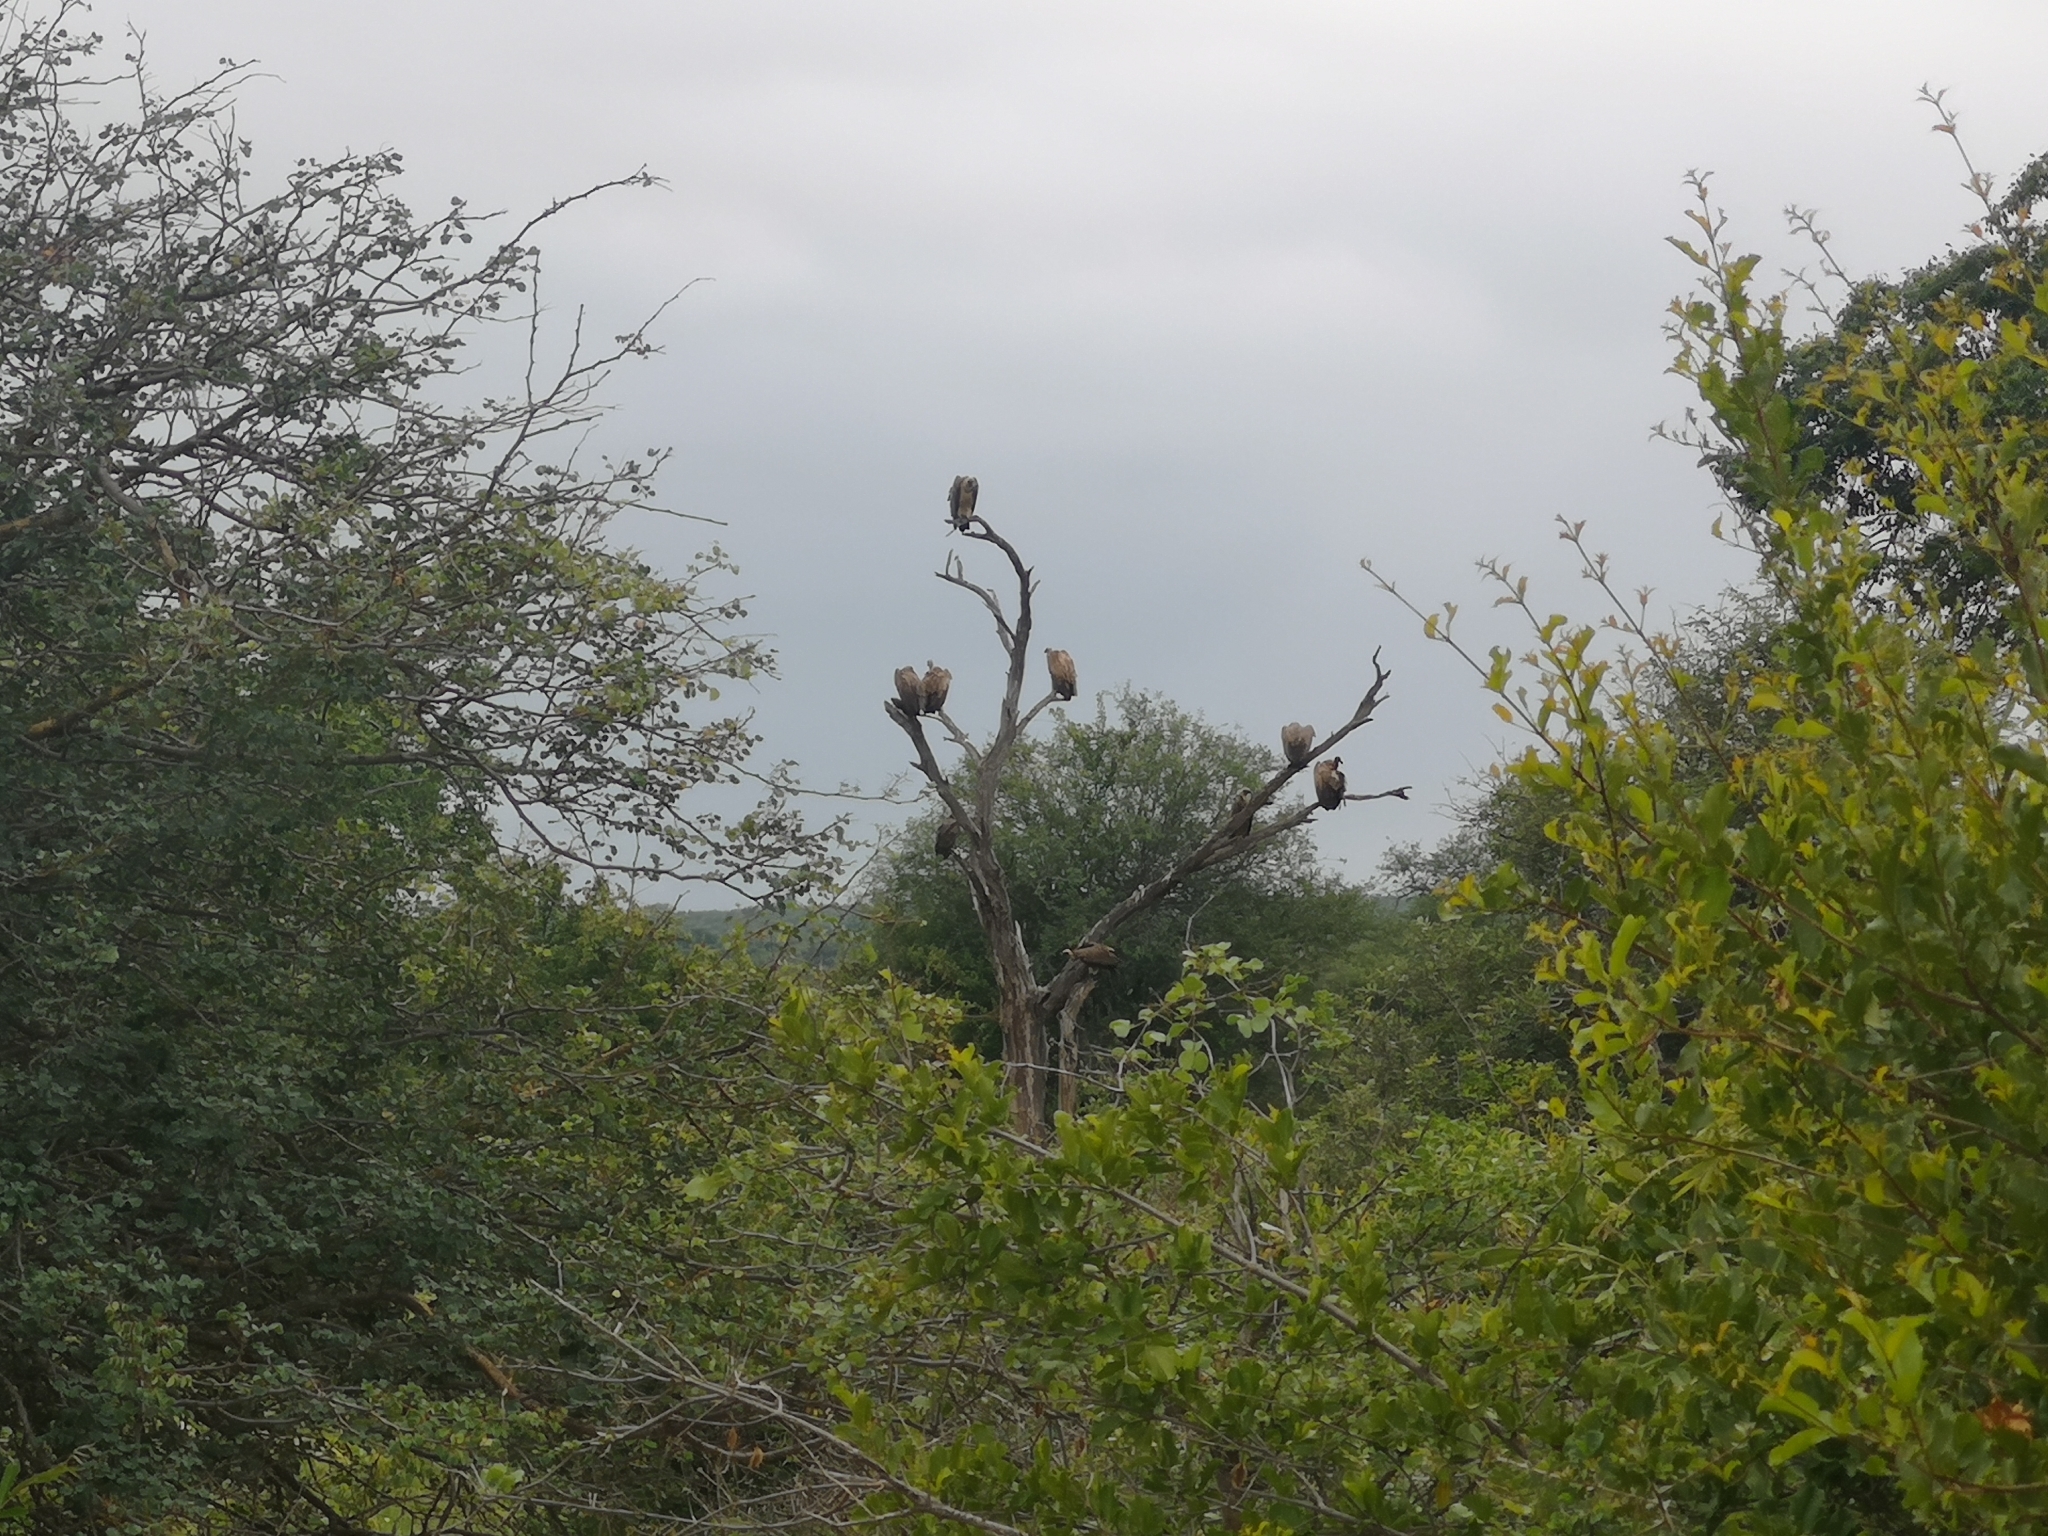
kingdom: Animalia
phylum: Chordata
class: Aves
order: Accipitriformes
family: Accipitridae
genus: Gyps
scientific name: Gyps africanus
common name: White-backed vulture
